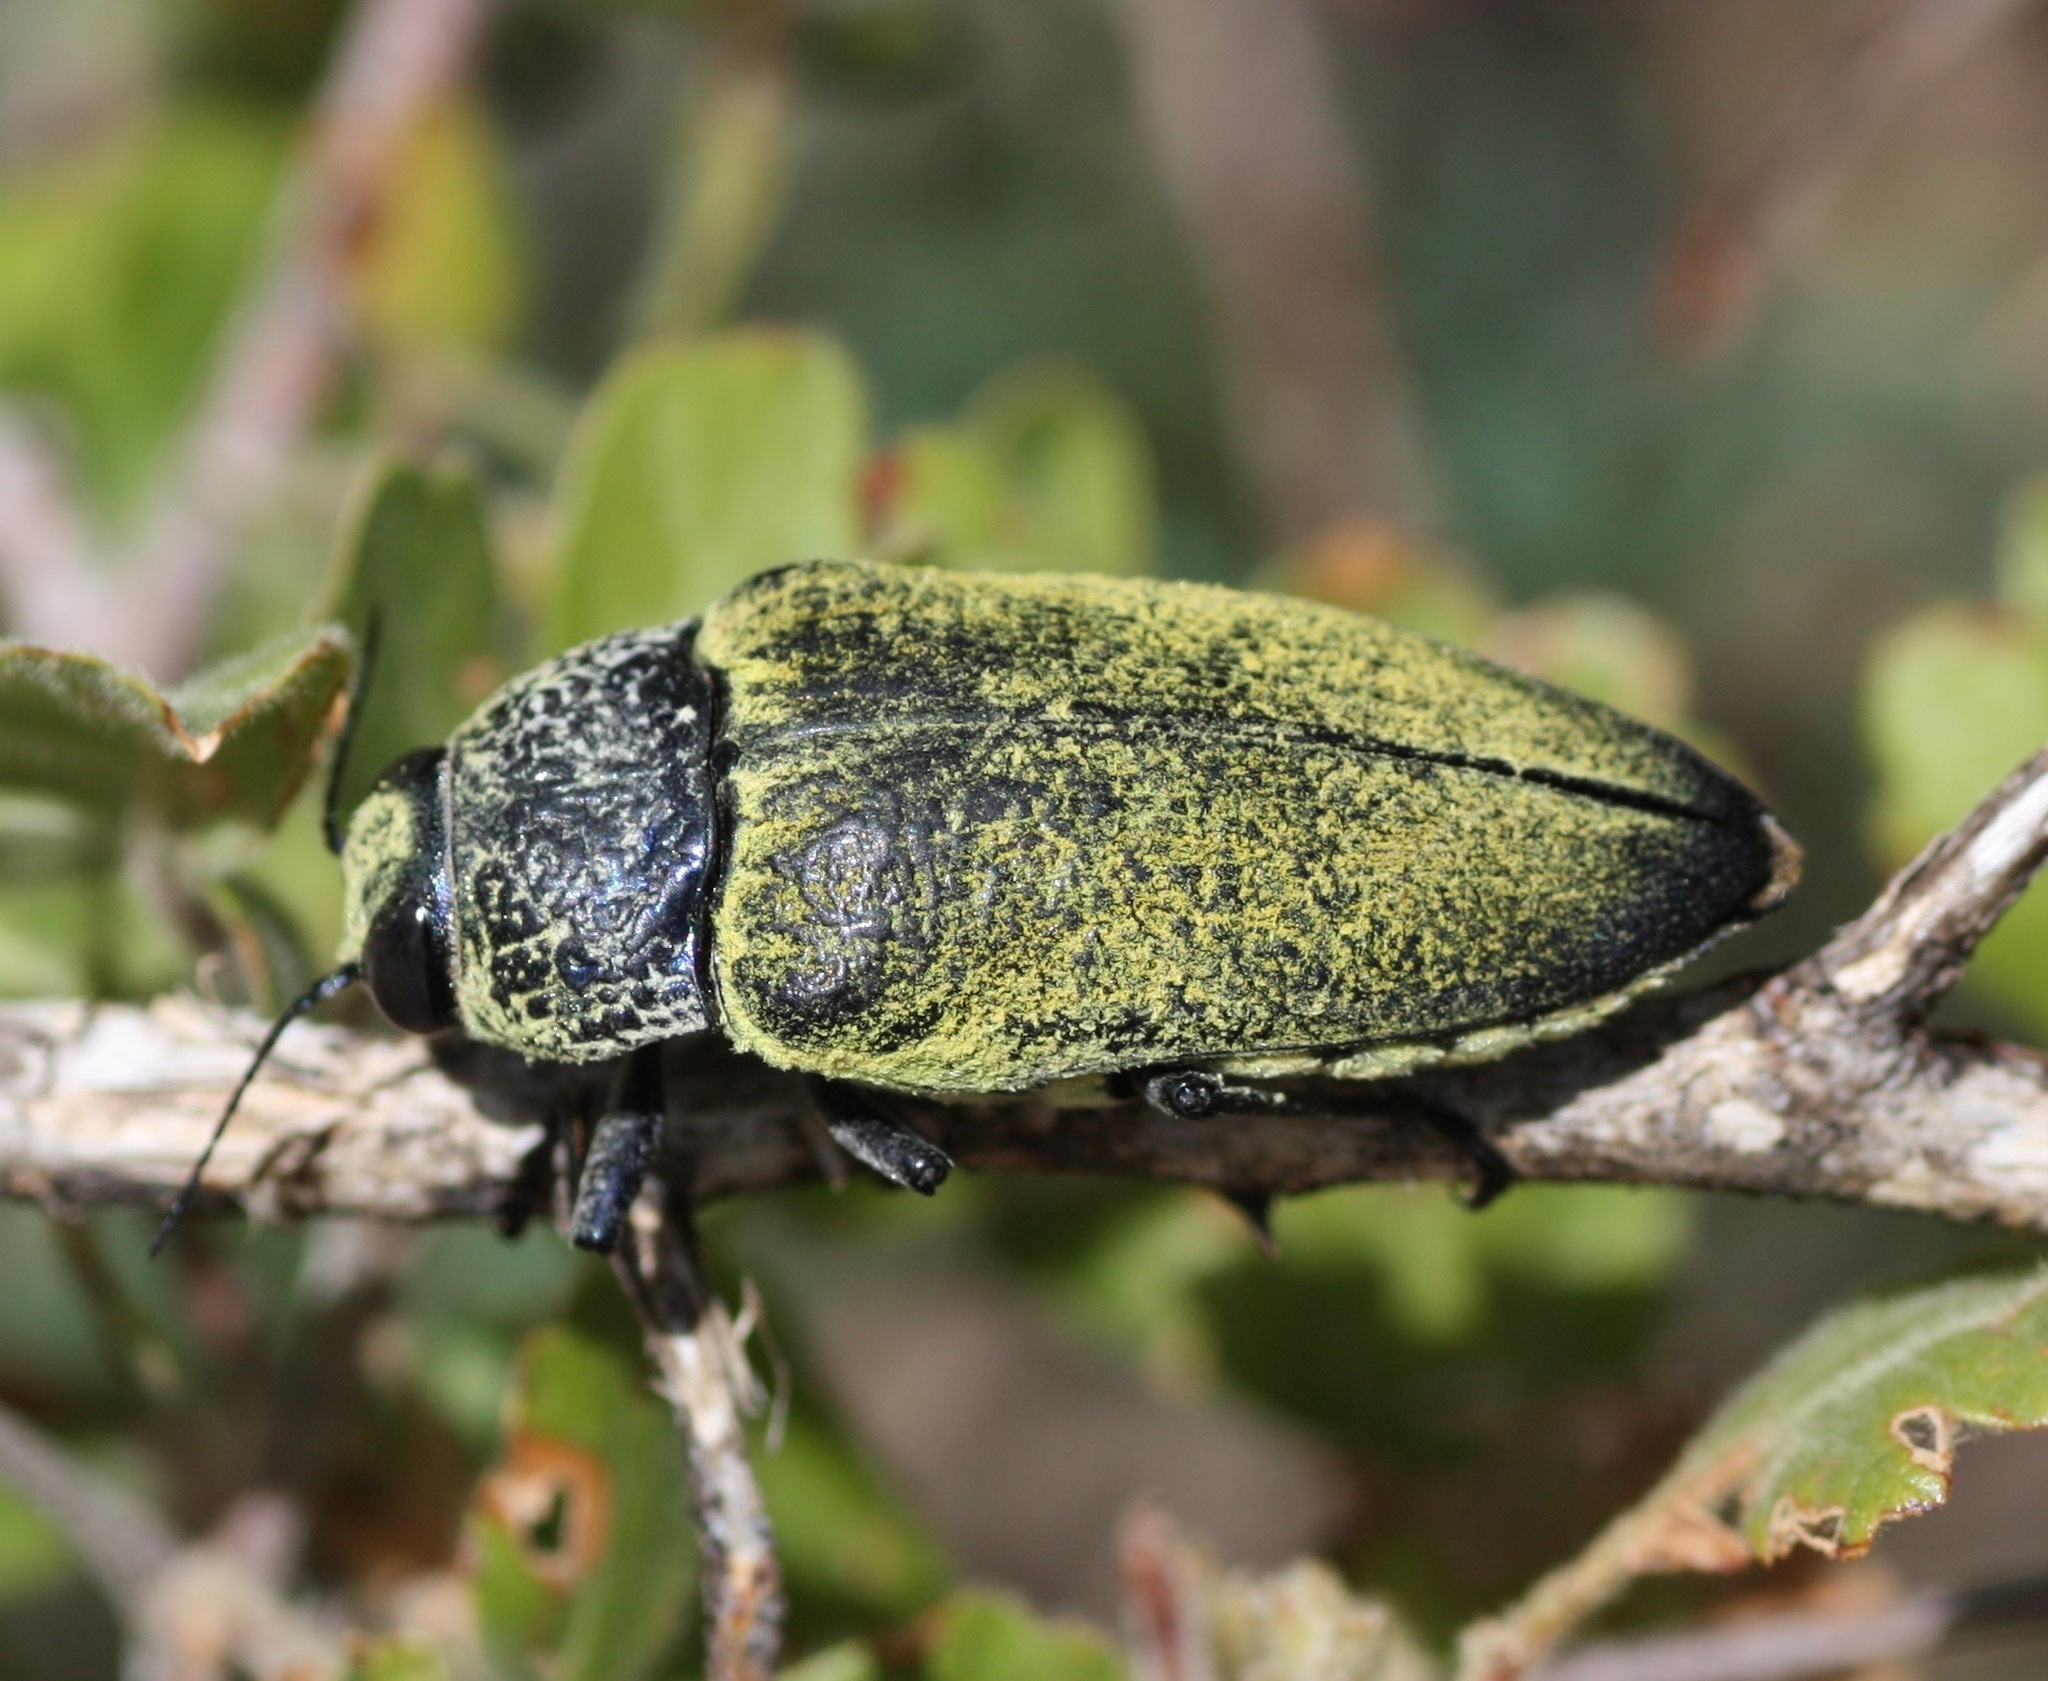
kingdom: Animalia
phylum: Arthropoda
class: Insecta
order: Coleoptera
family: Buprestidae
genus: Gyascutus
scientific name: Gyascutus caelatus
